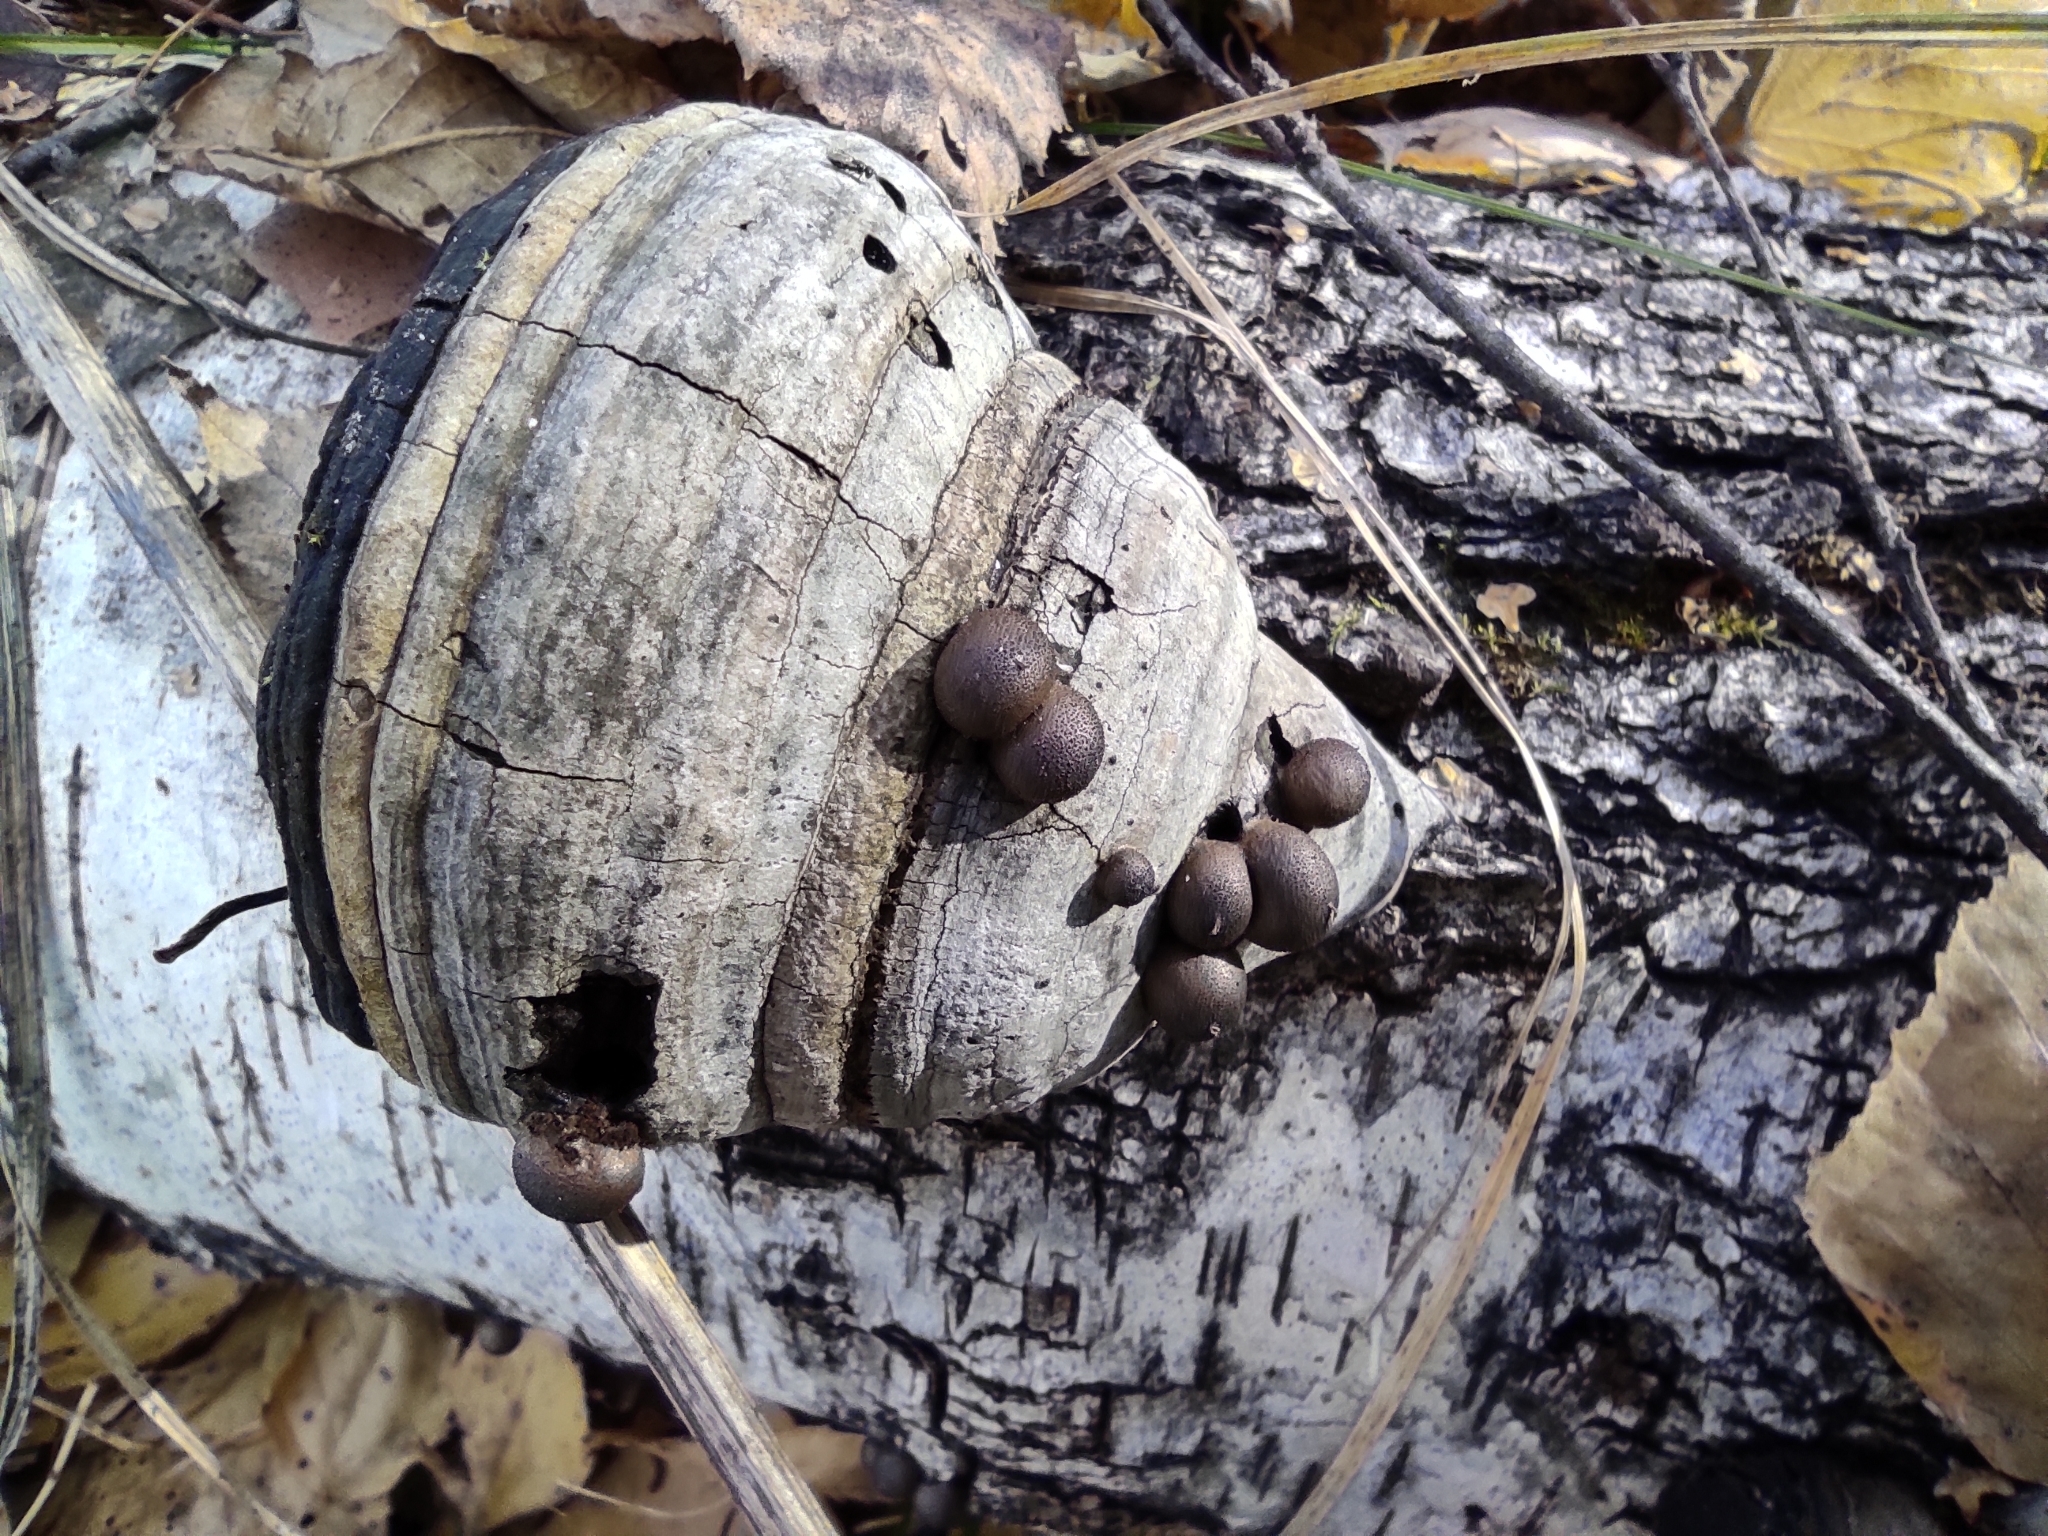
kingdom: Fungi
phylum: Basidiomycota
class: Agaricomycetes
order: Polyporales
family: Polyporaceae
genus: Fomes
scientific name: Fomes fomentarius
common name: Hoof fungus
